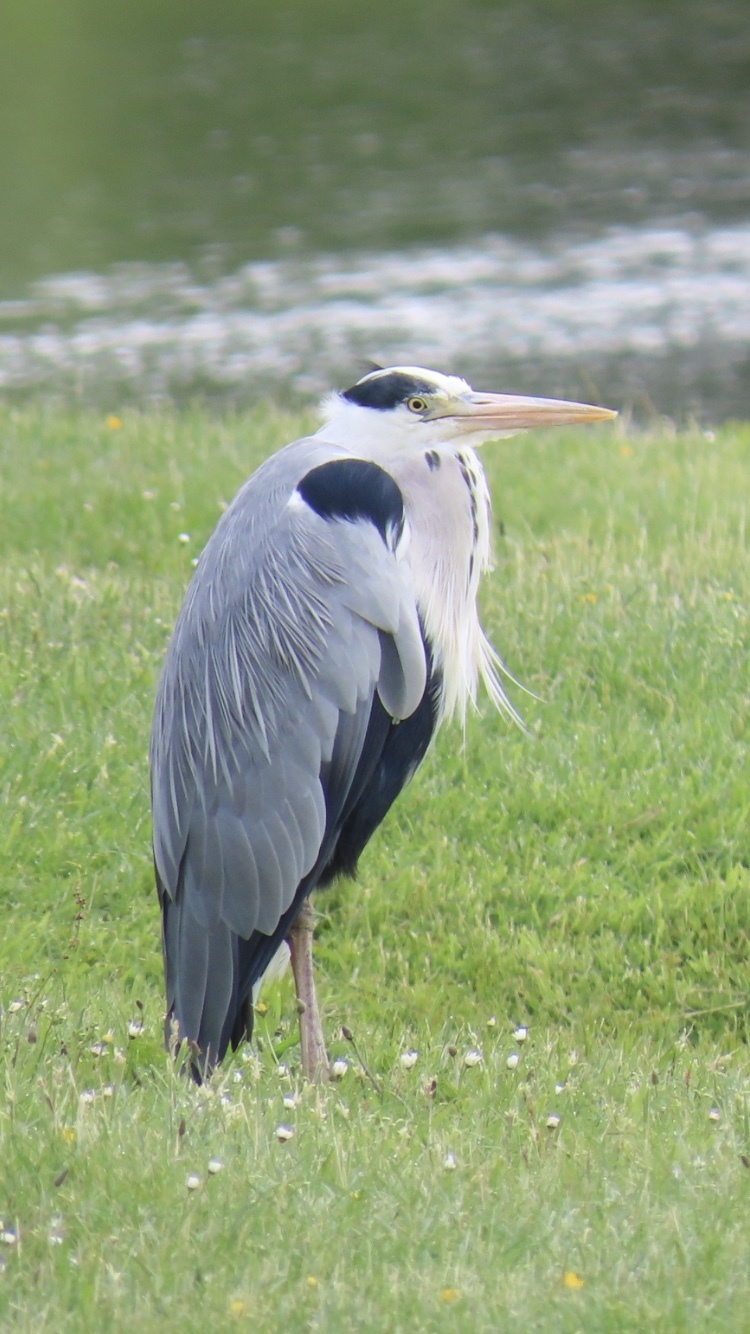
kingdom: Animalia
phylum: Chordata
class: Aves
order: Pelecaniformes
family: Ardeidae
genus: Ardea
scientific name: Ardea cinerea
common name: Grey heron
